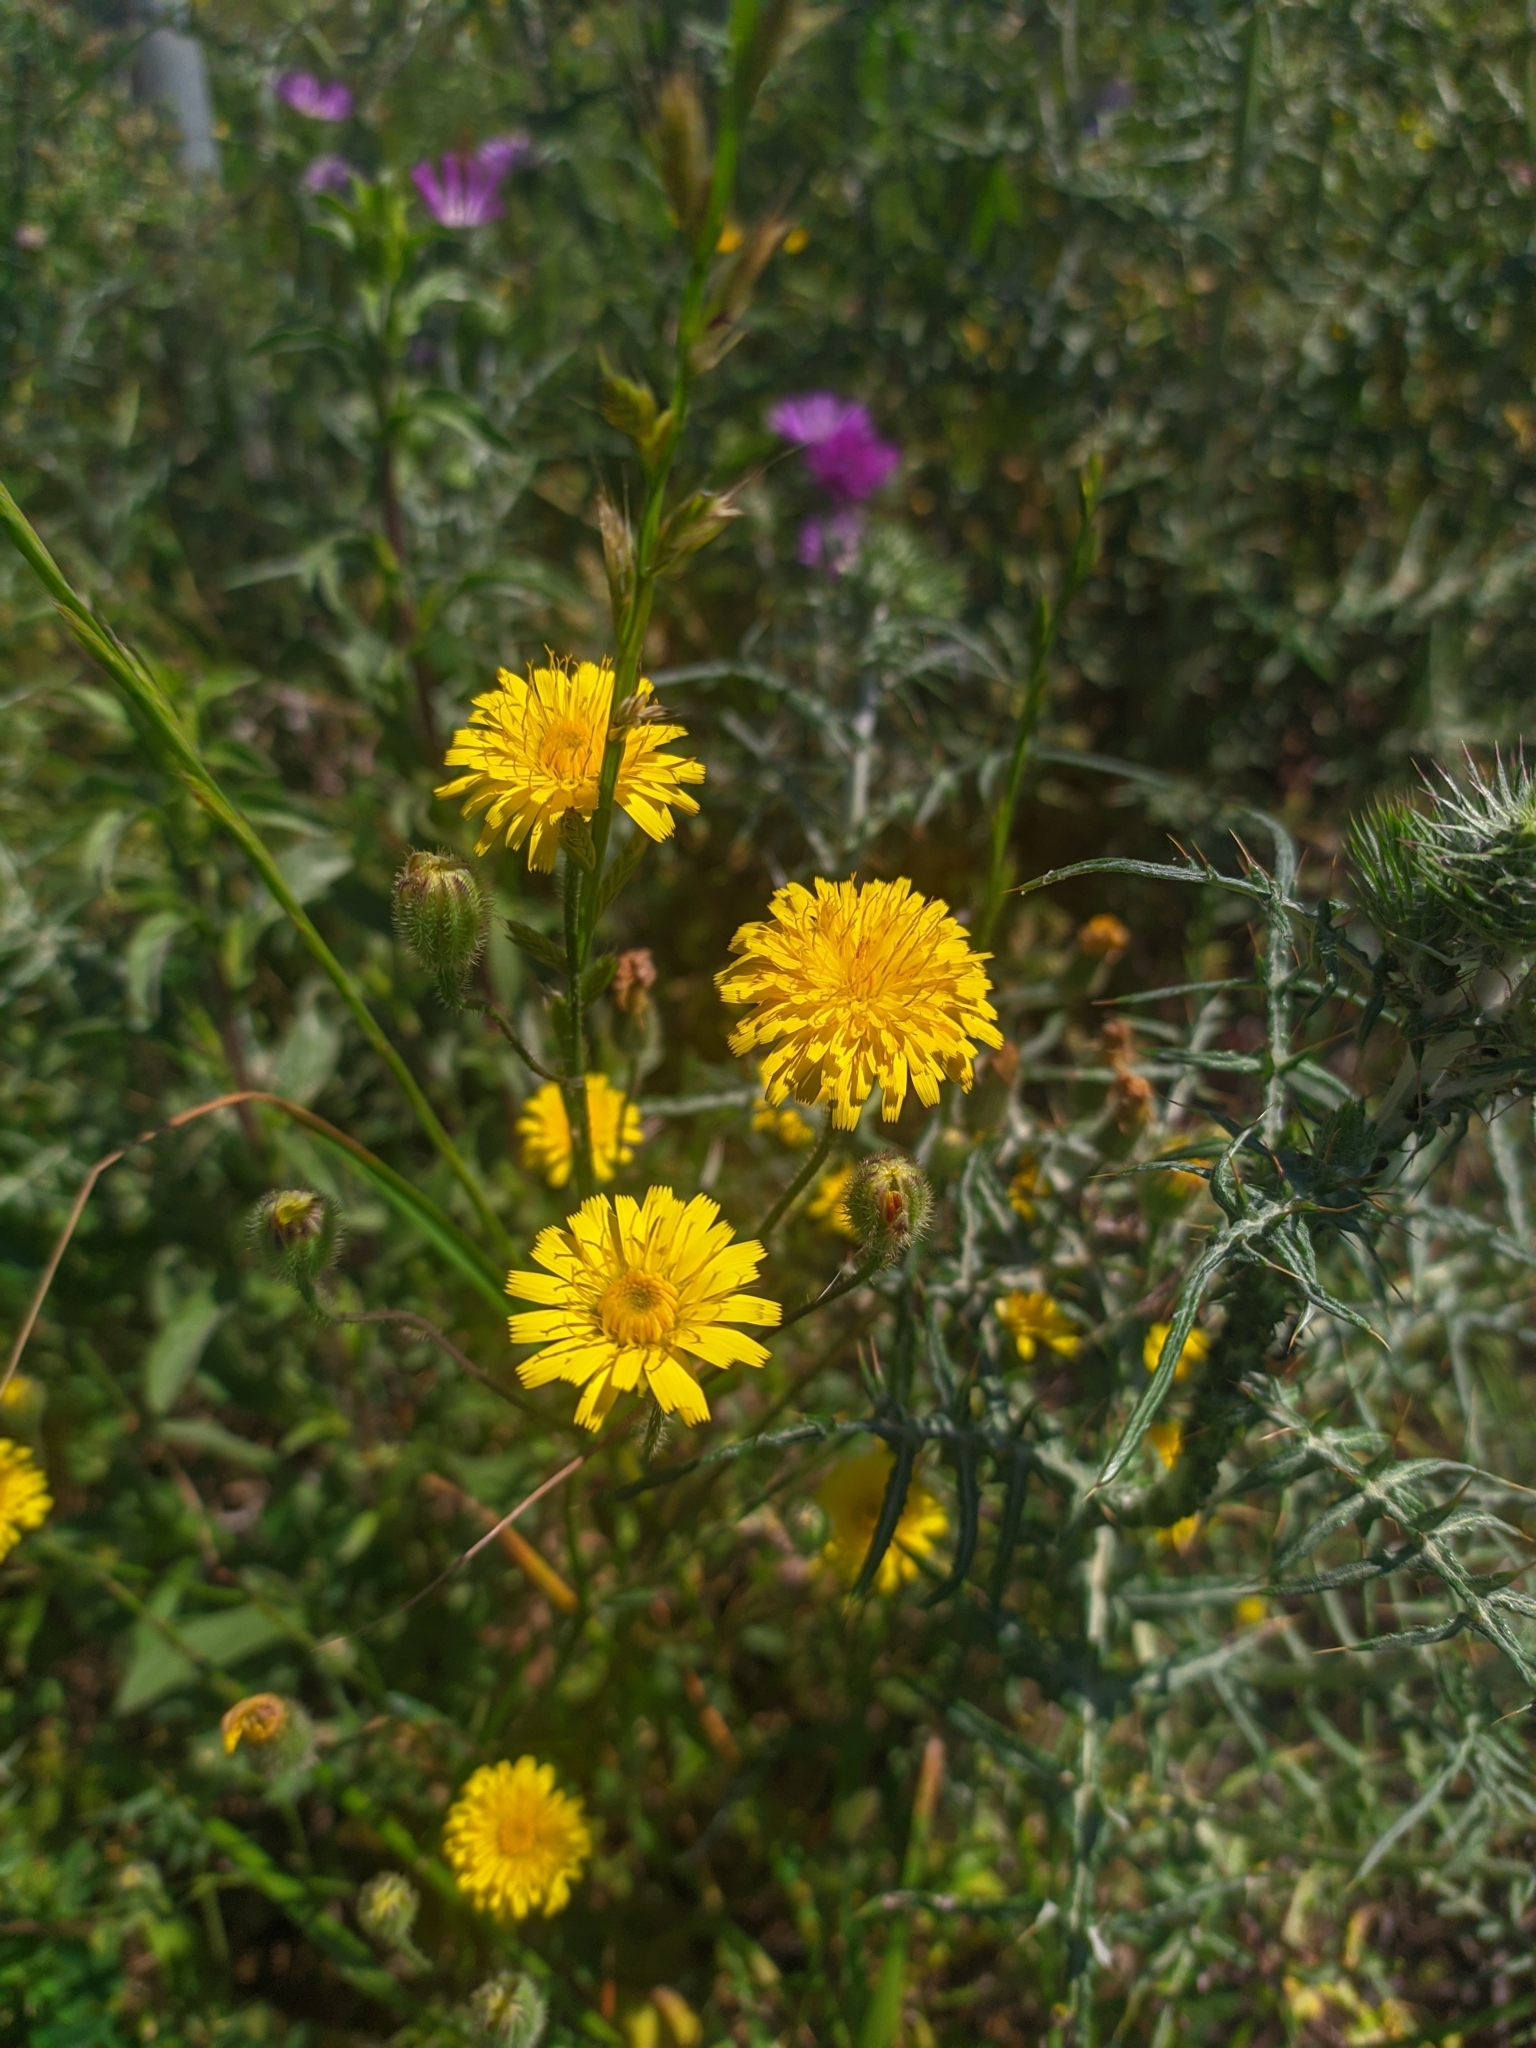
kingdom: Plantae
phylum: Tracheophyta
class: Magnoliopsida
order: Asterales
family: Asteraceae
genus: Taraxacum
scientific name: Taraxacum officinale
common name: Common dandelion
